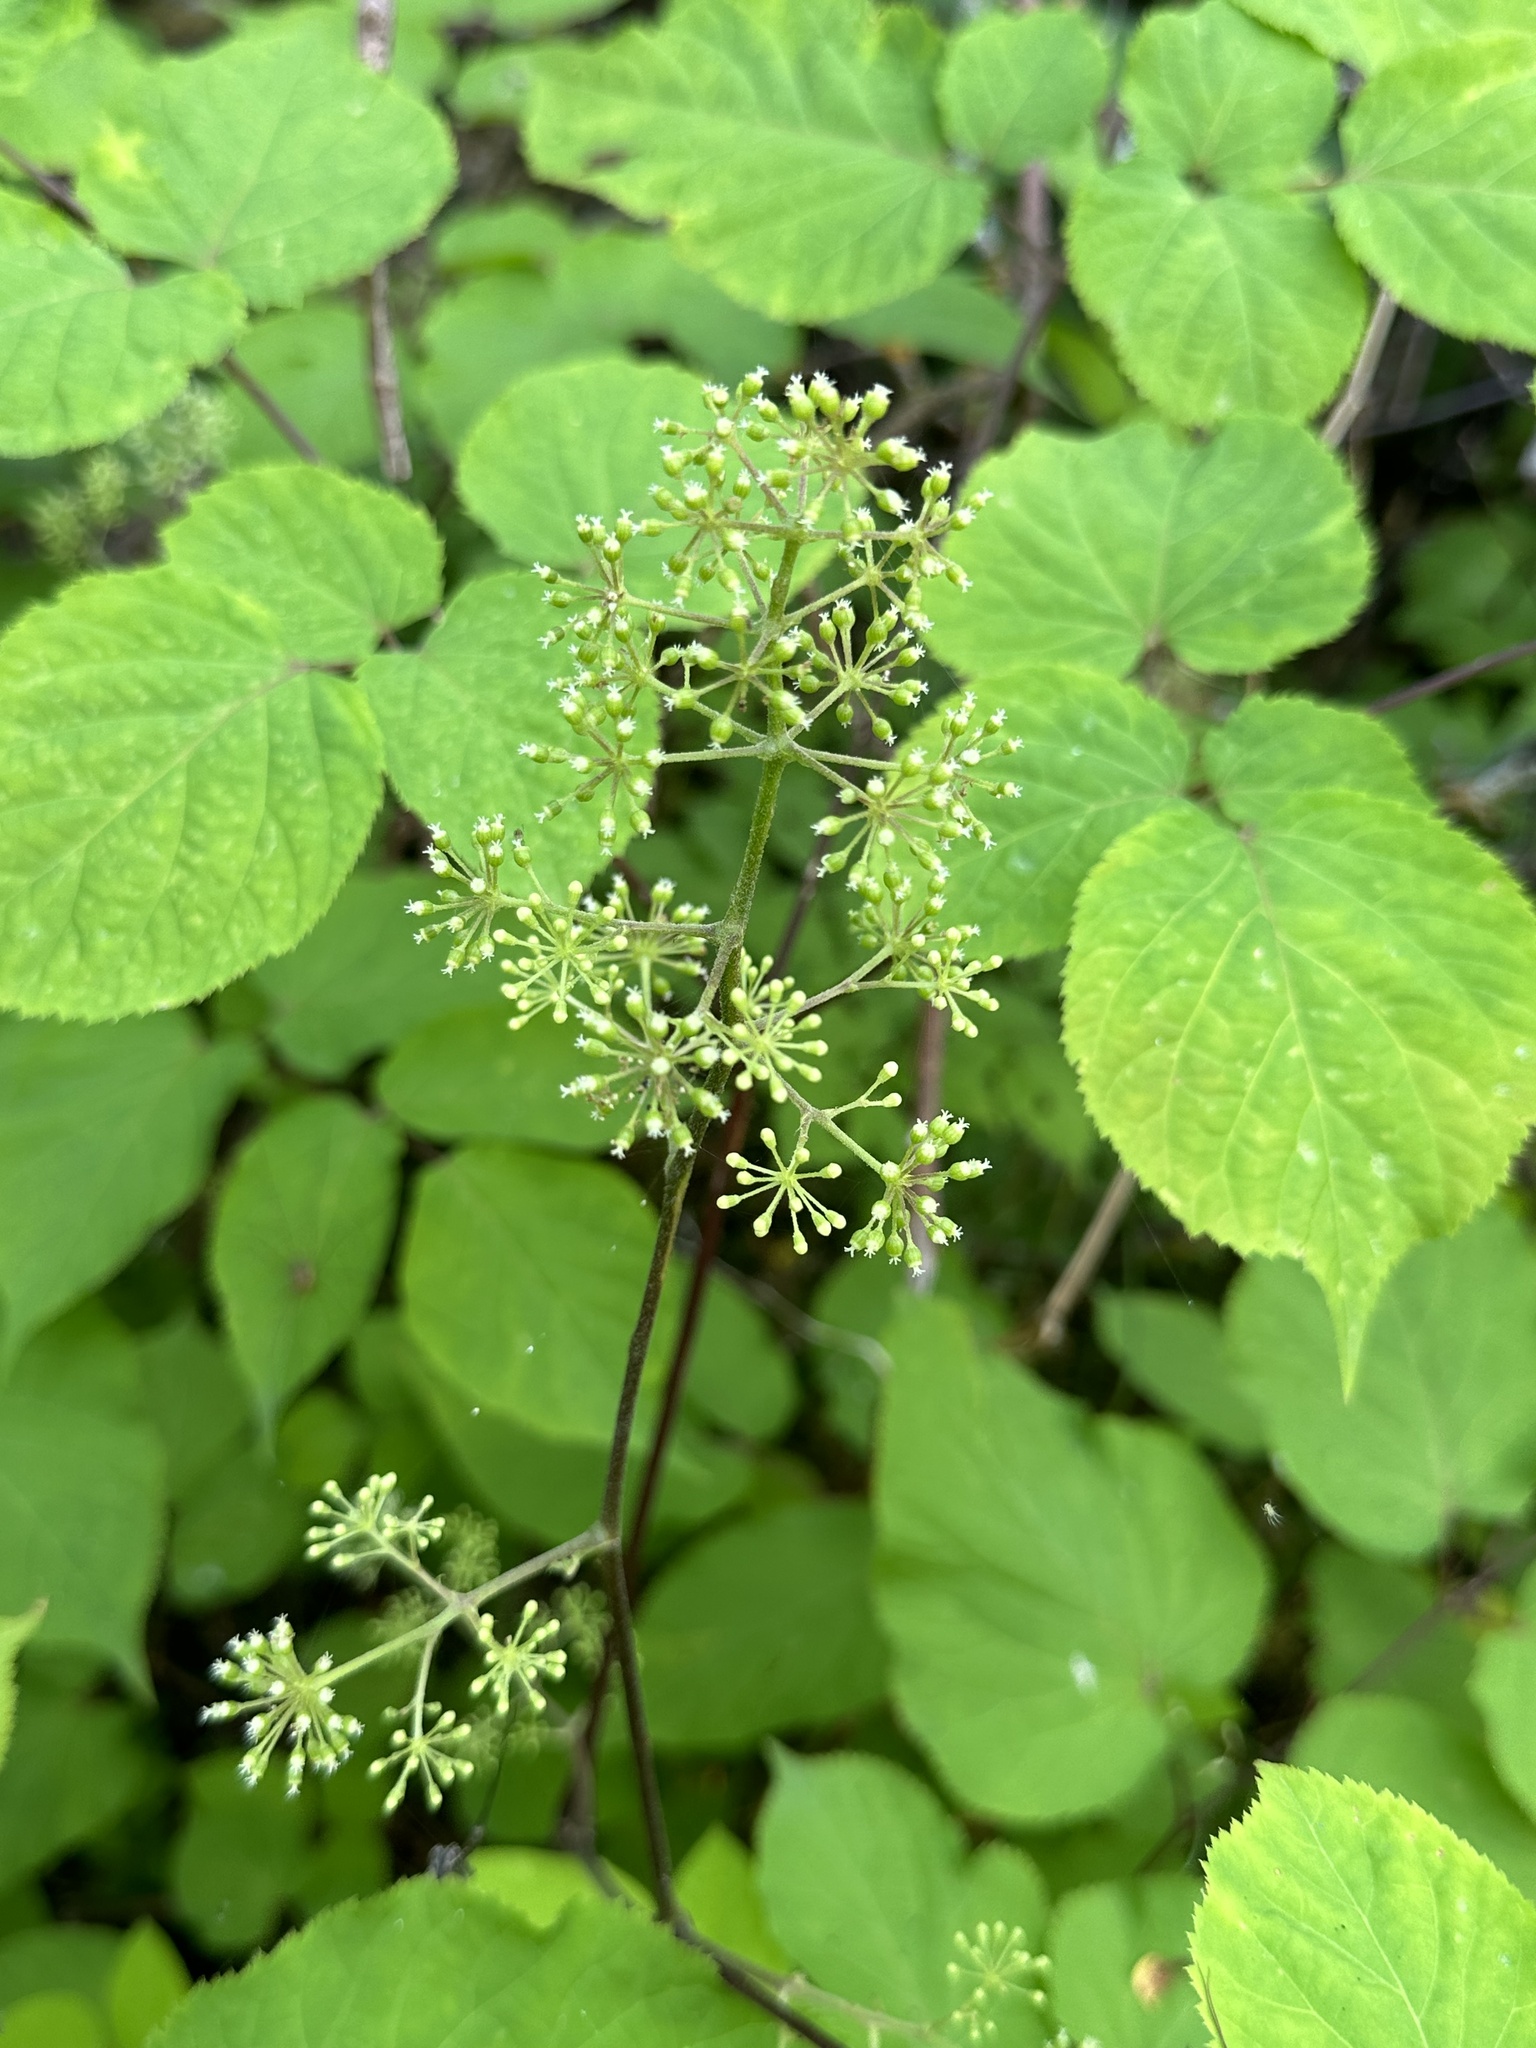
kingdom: Plantae
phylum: Tracheophyta
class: Magnoliopsida
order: Apiales
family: Araliaceae
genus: Aralia
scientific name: Aralia racemosa
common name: American-spikenard
